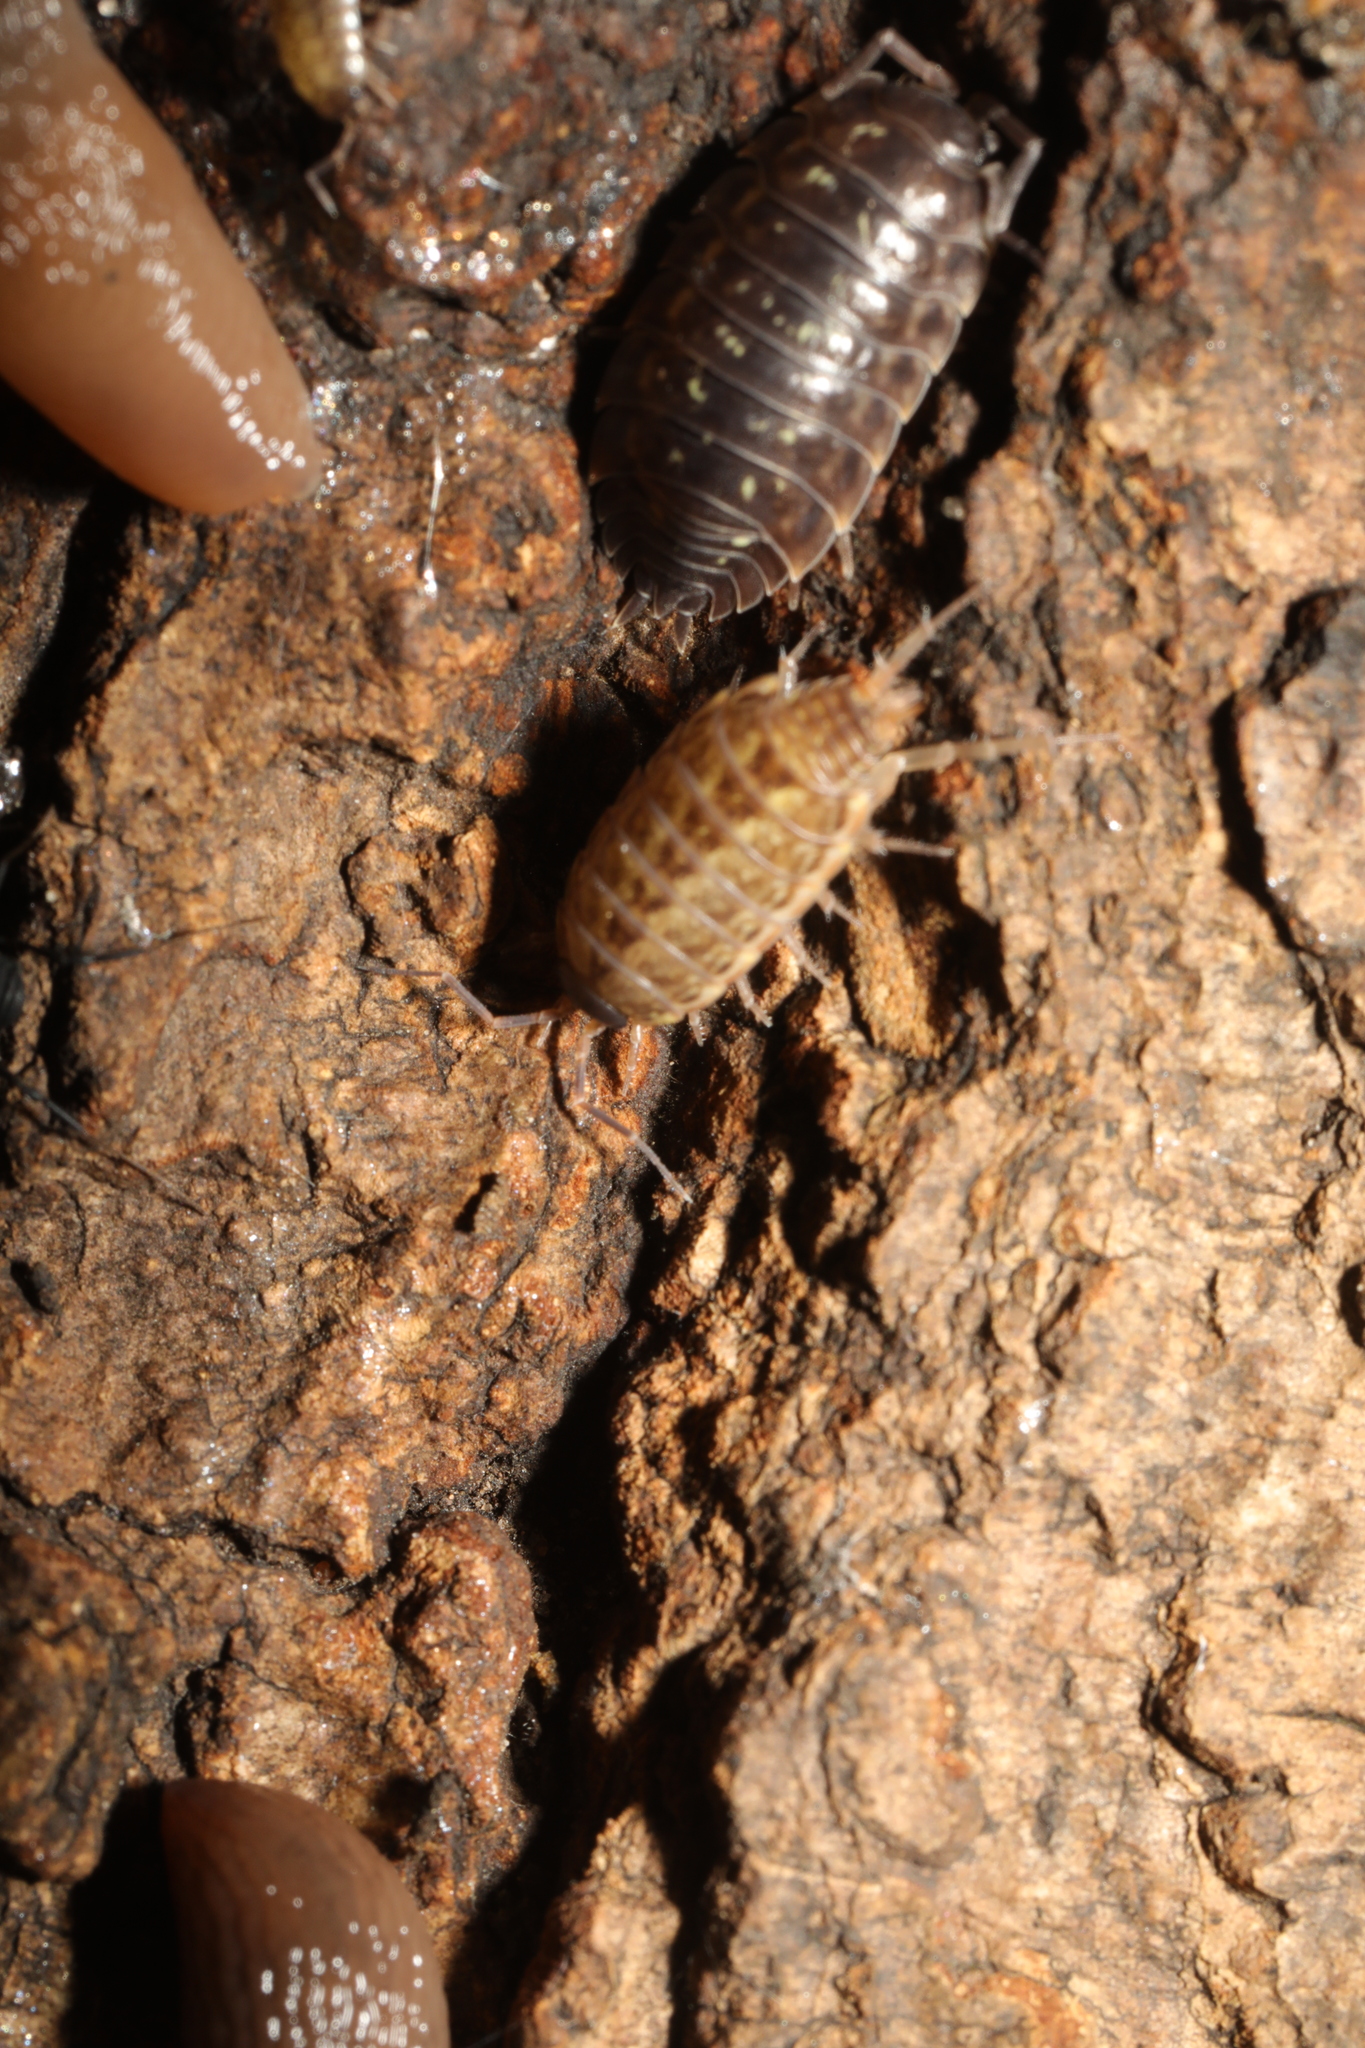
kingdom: Animalia
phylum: Arthropoda
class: Malacostraca
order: Isopoda
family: Oniscidae
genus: Oniscus
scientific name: Oniscus asellus
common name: Common shiny woodlouse
